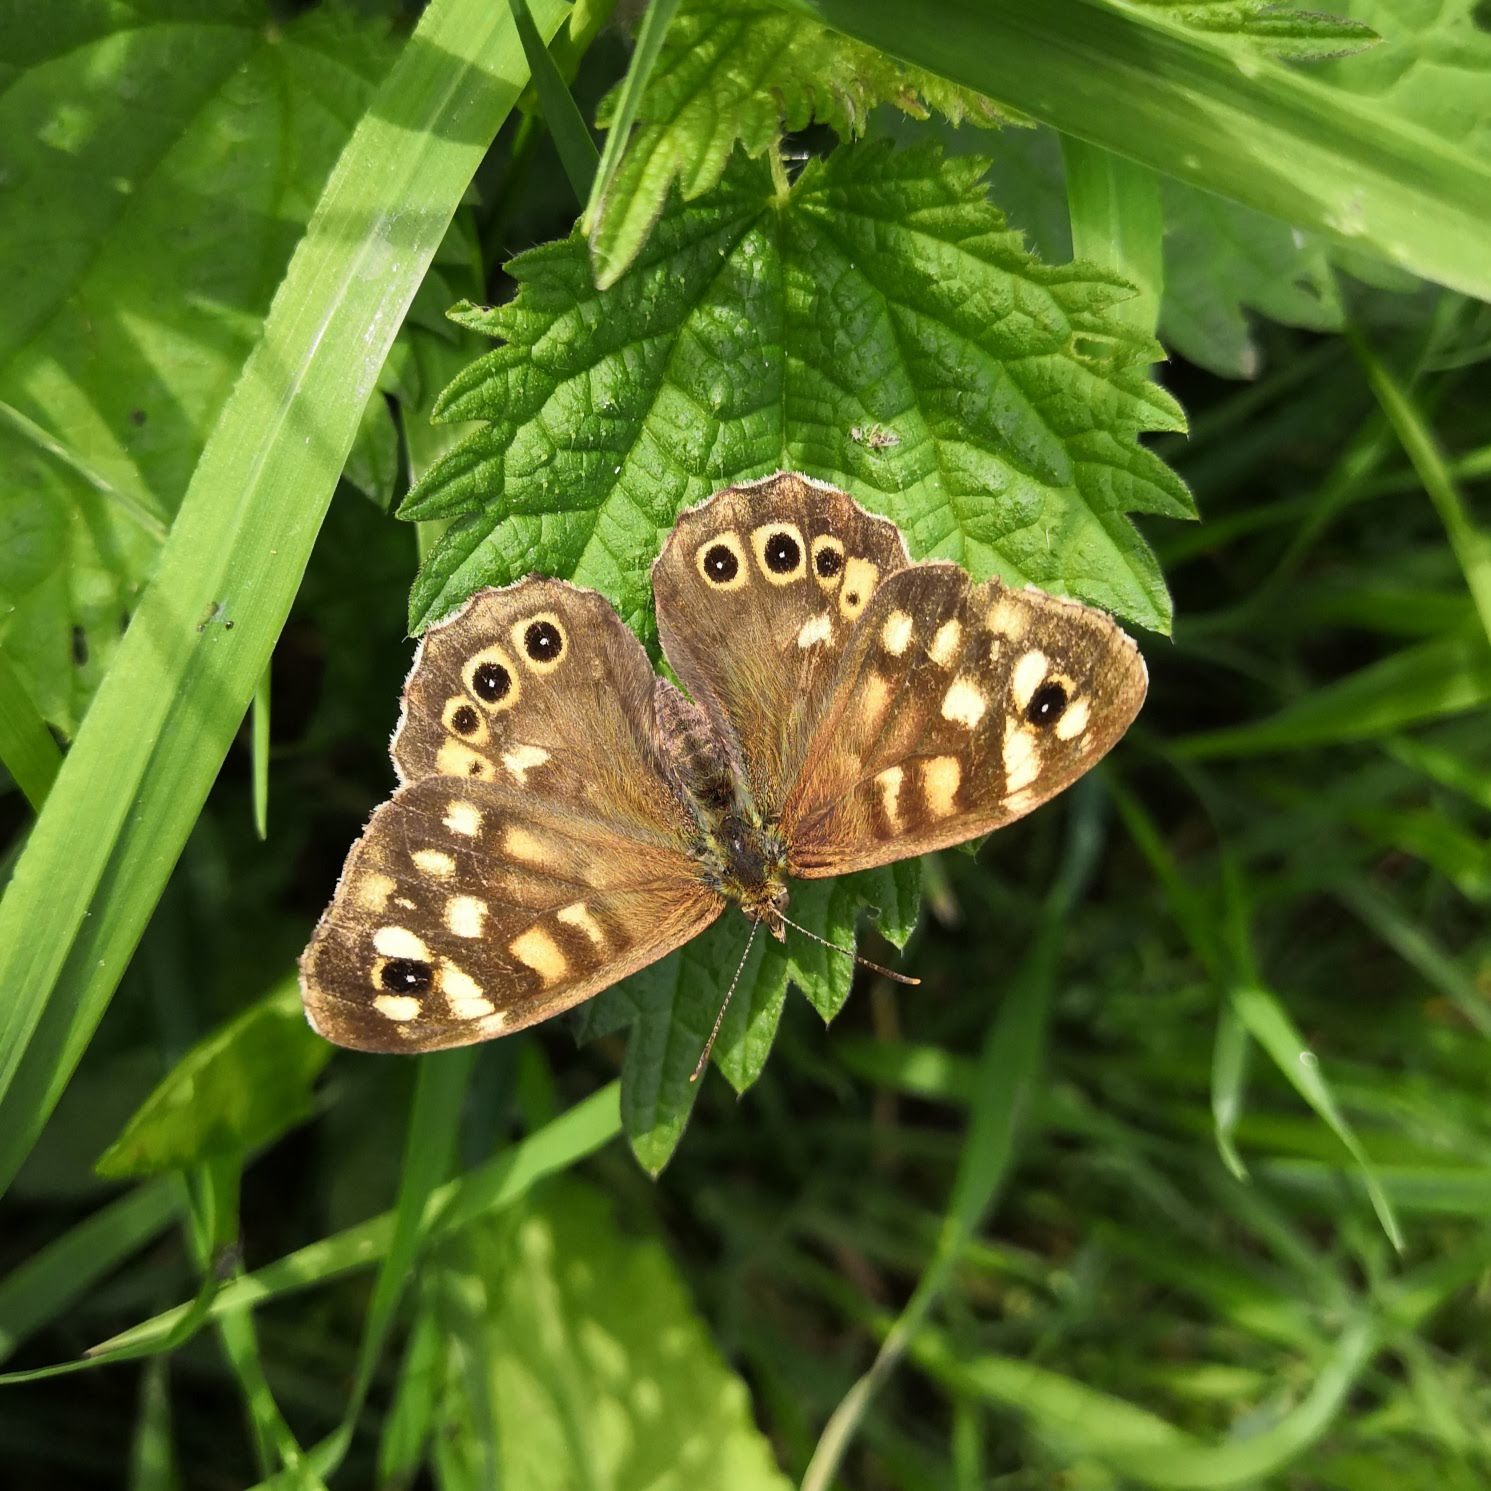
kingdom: Animalia
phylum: Arthropoda
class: Insecta
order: Lepidoptera
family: Nymphalidae
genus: Pararge
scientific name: Pararge aegeria
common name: Speckled wood
